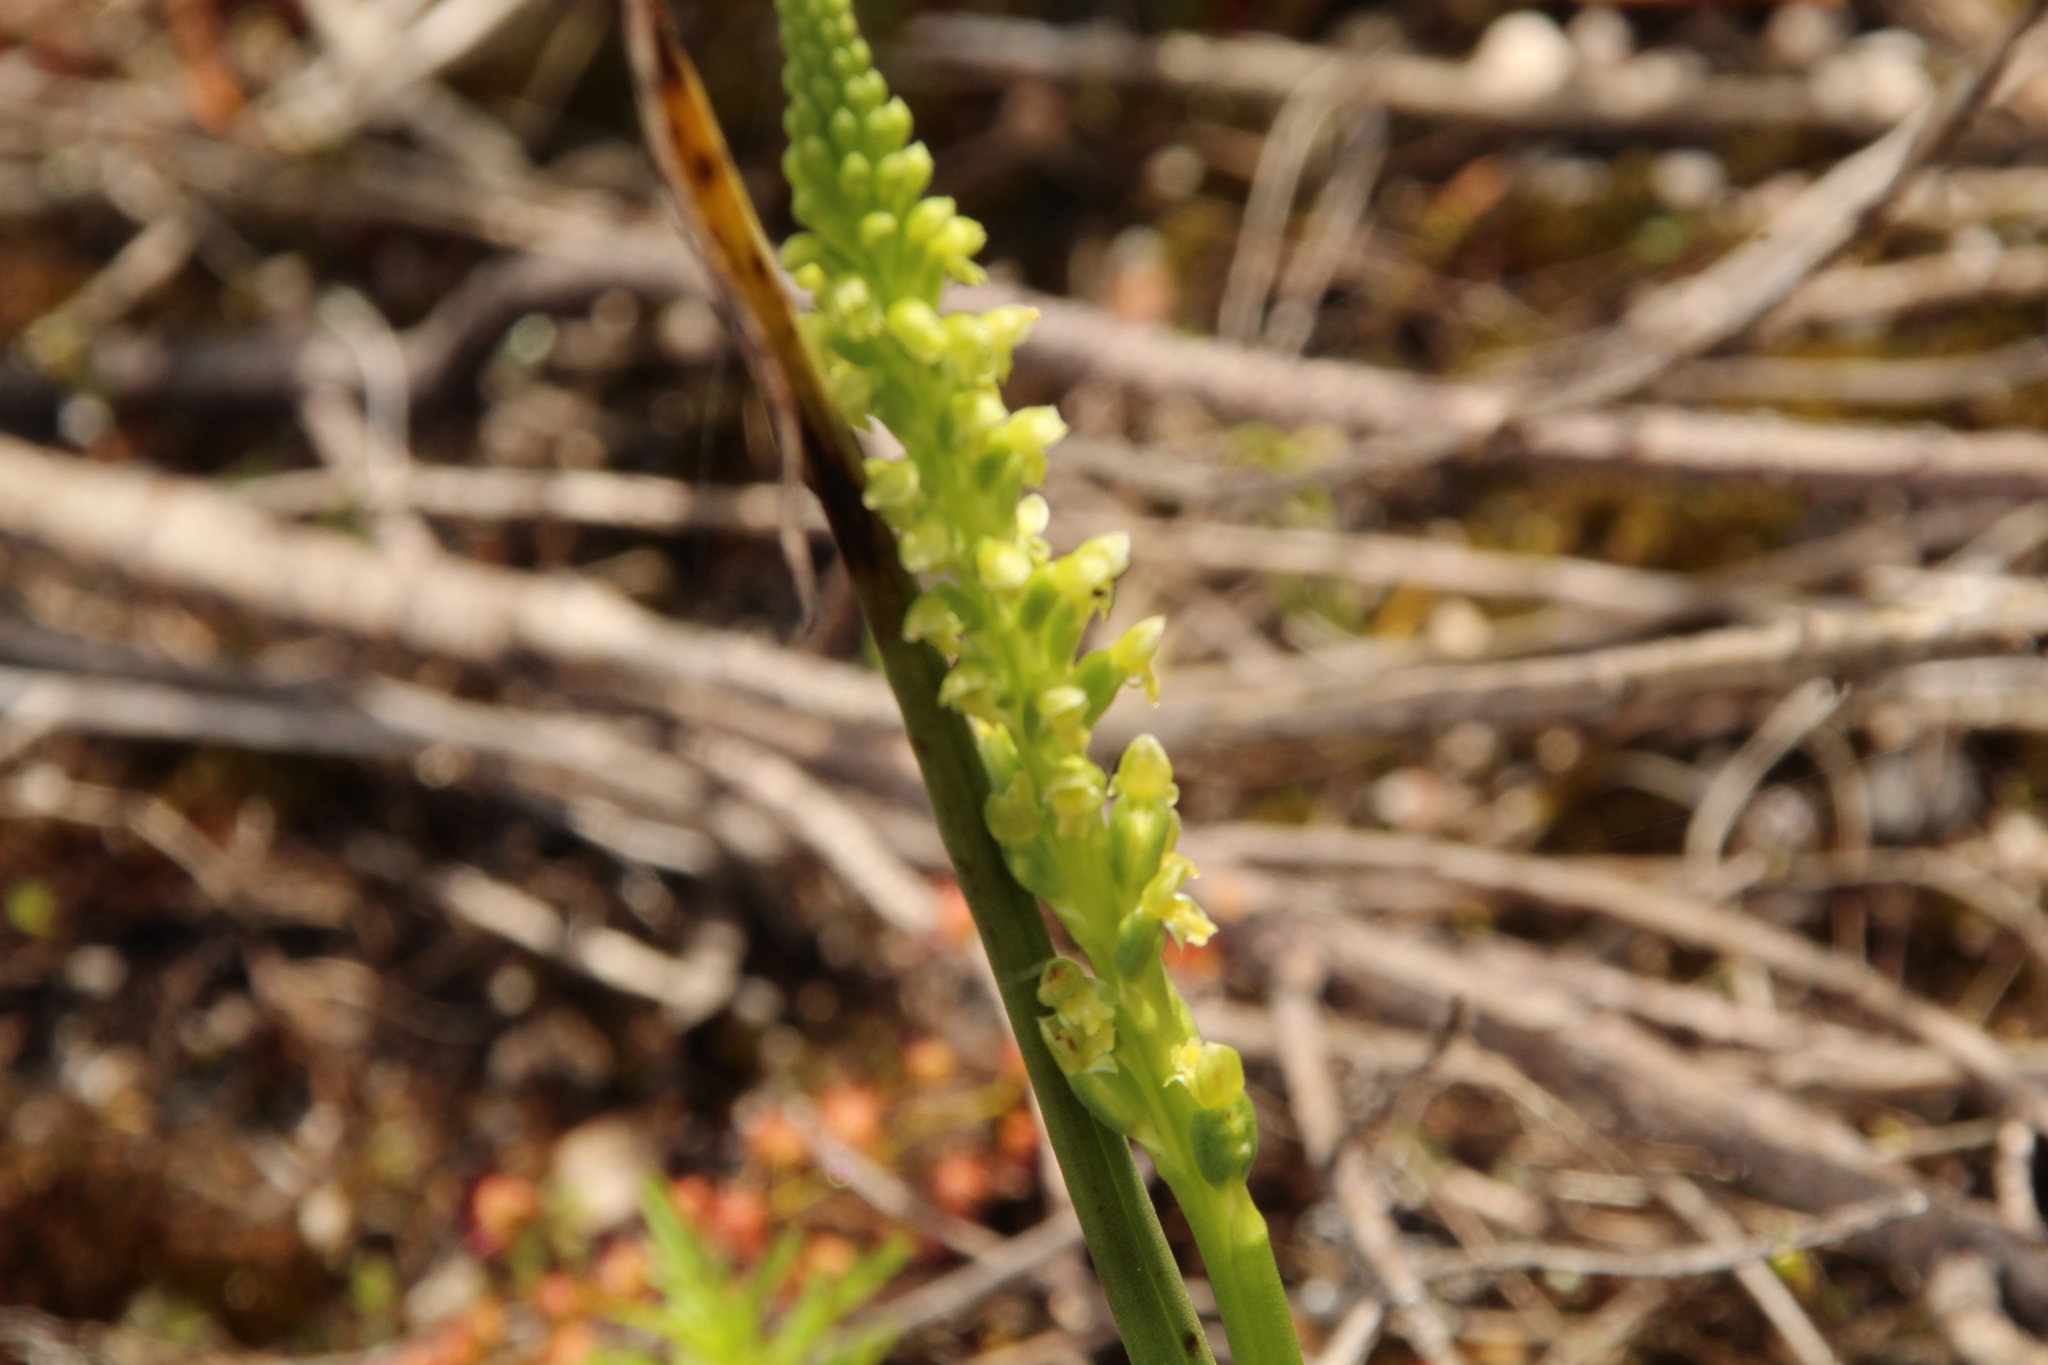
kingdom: Plantae
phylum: Tracheophyta
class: Liliopsida
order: Asparagales
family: Orchidaceae
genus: Microtis
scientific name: Microtis media
